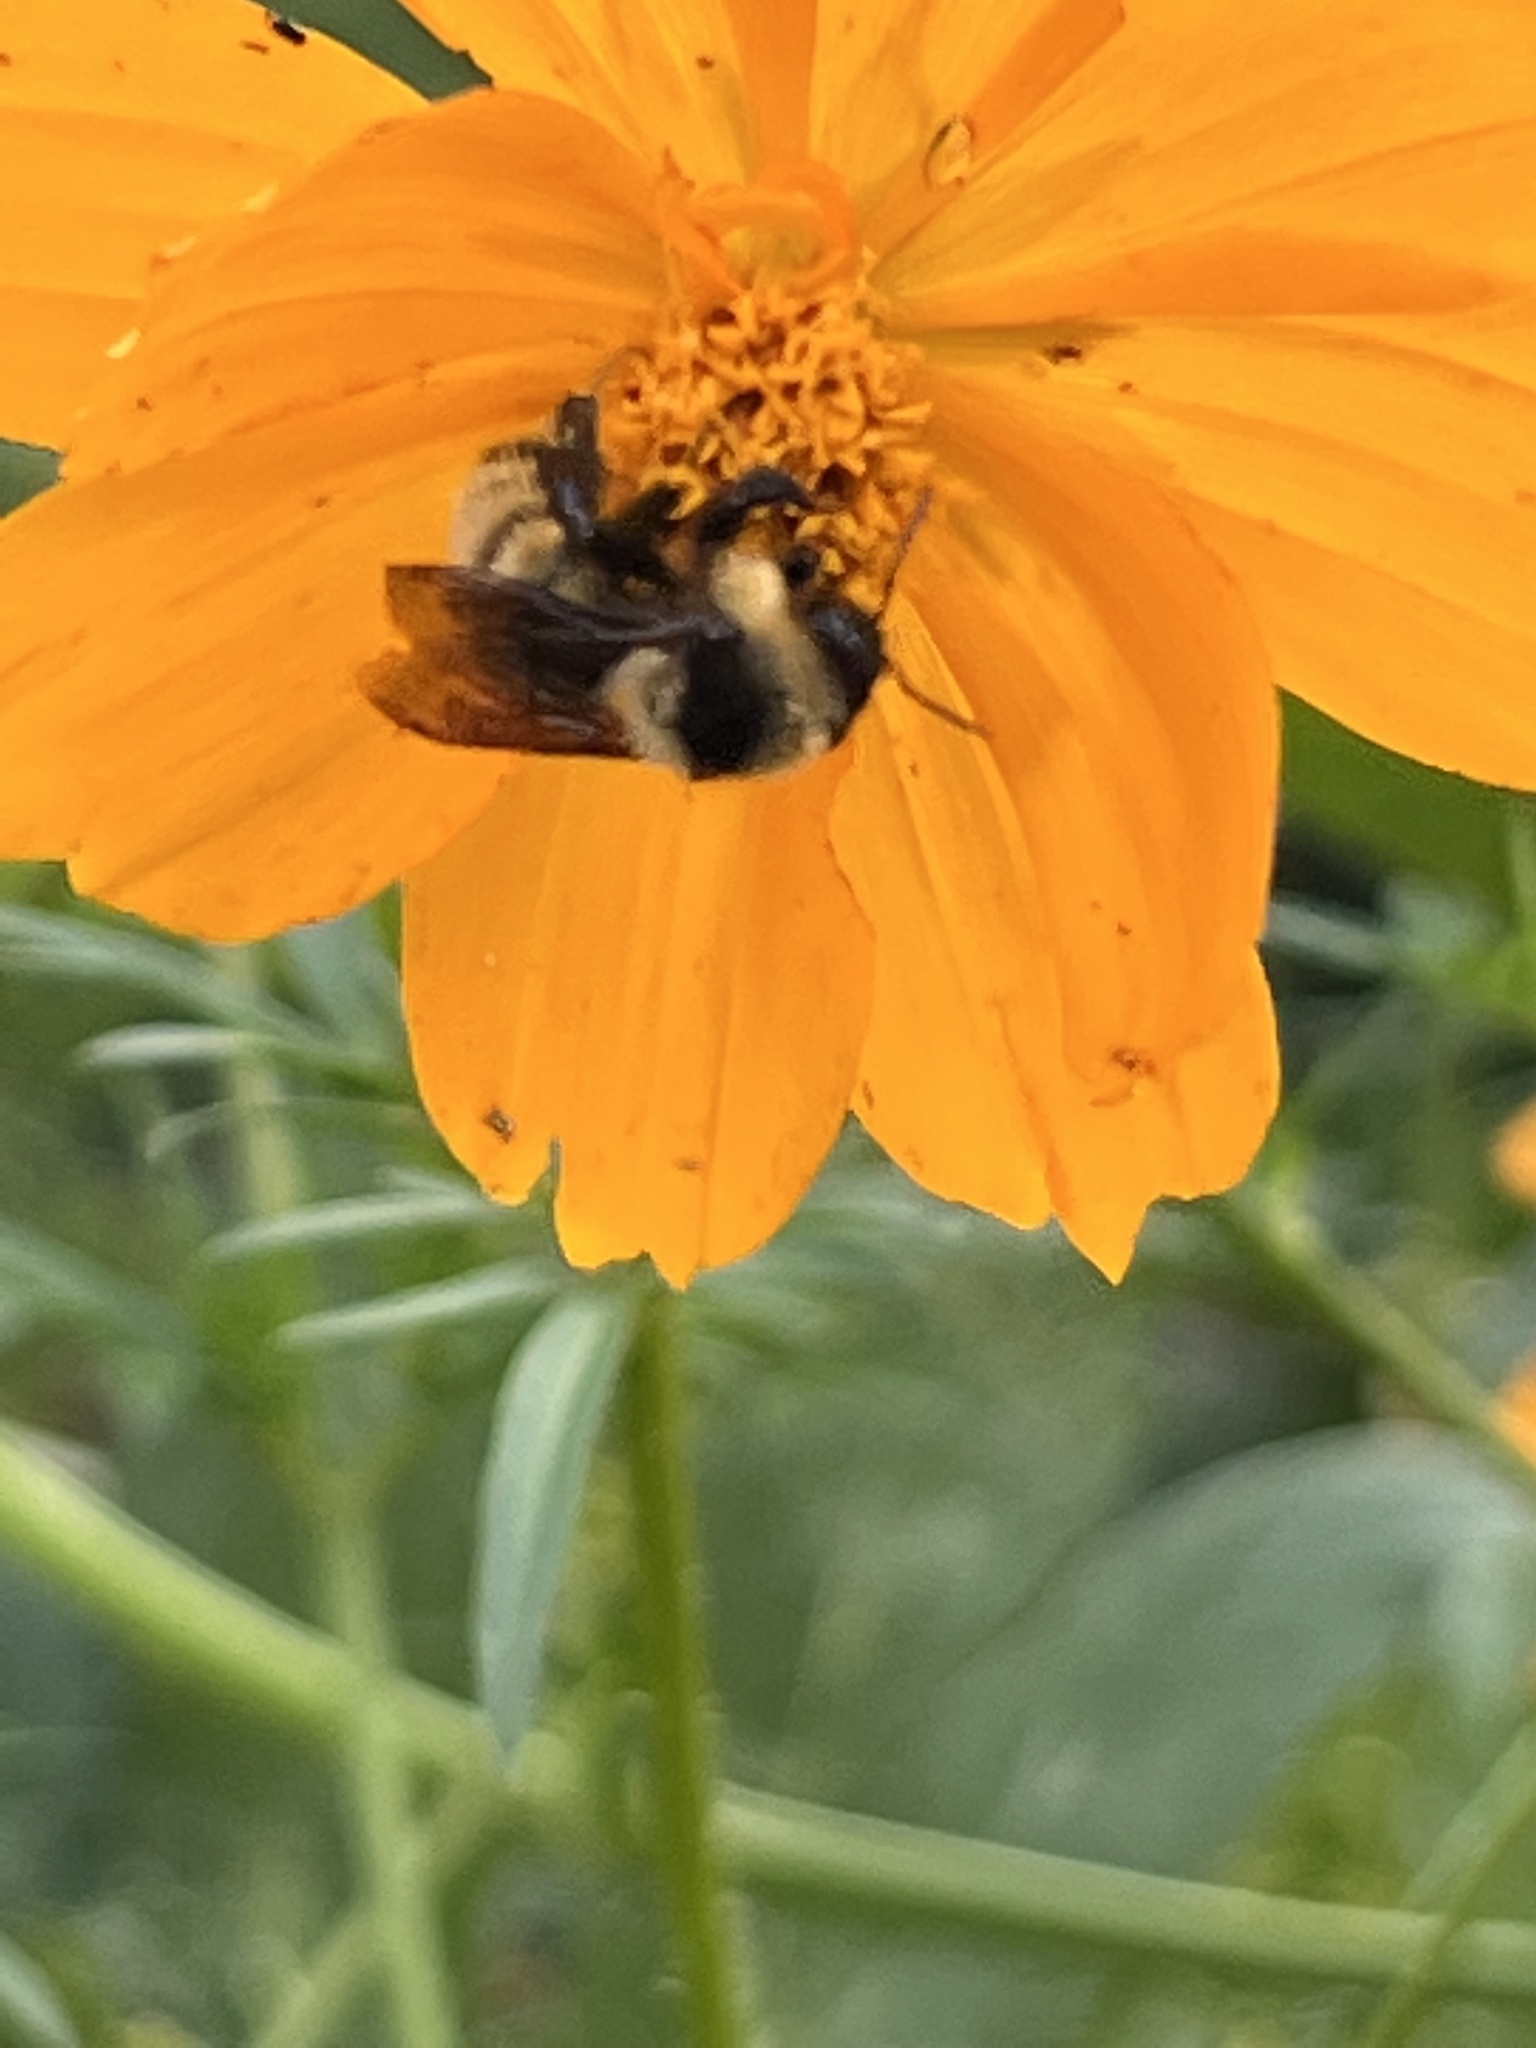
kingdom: Animalia
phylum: Arthropoda
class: Insecta
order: Hymenoptera
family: Apidae
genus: Bombus
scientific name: Bombus fervidus
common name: Yellow bumble bee
